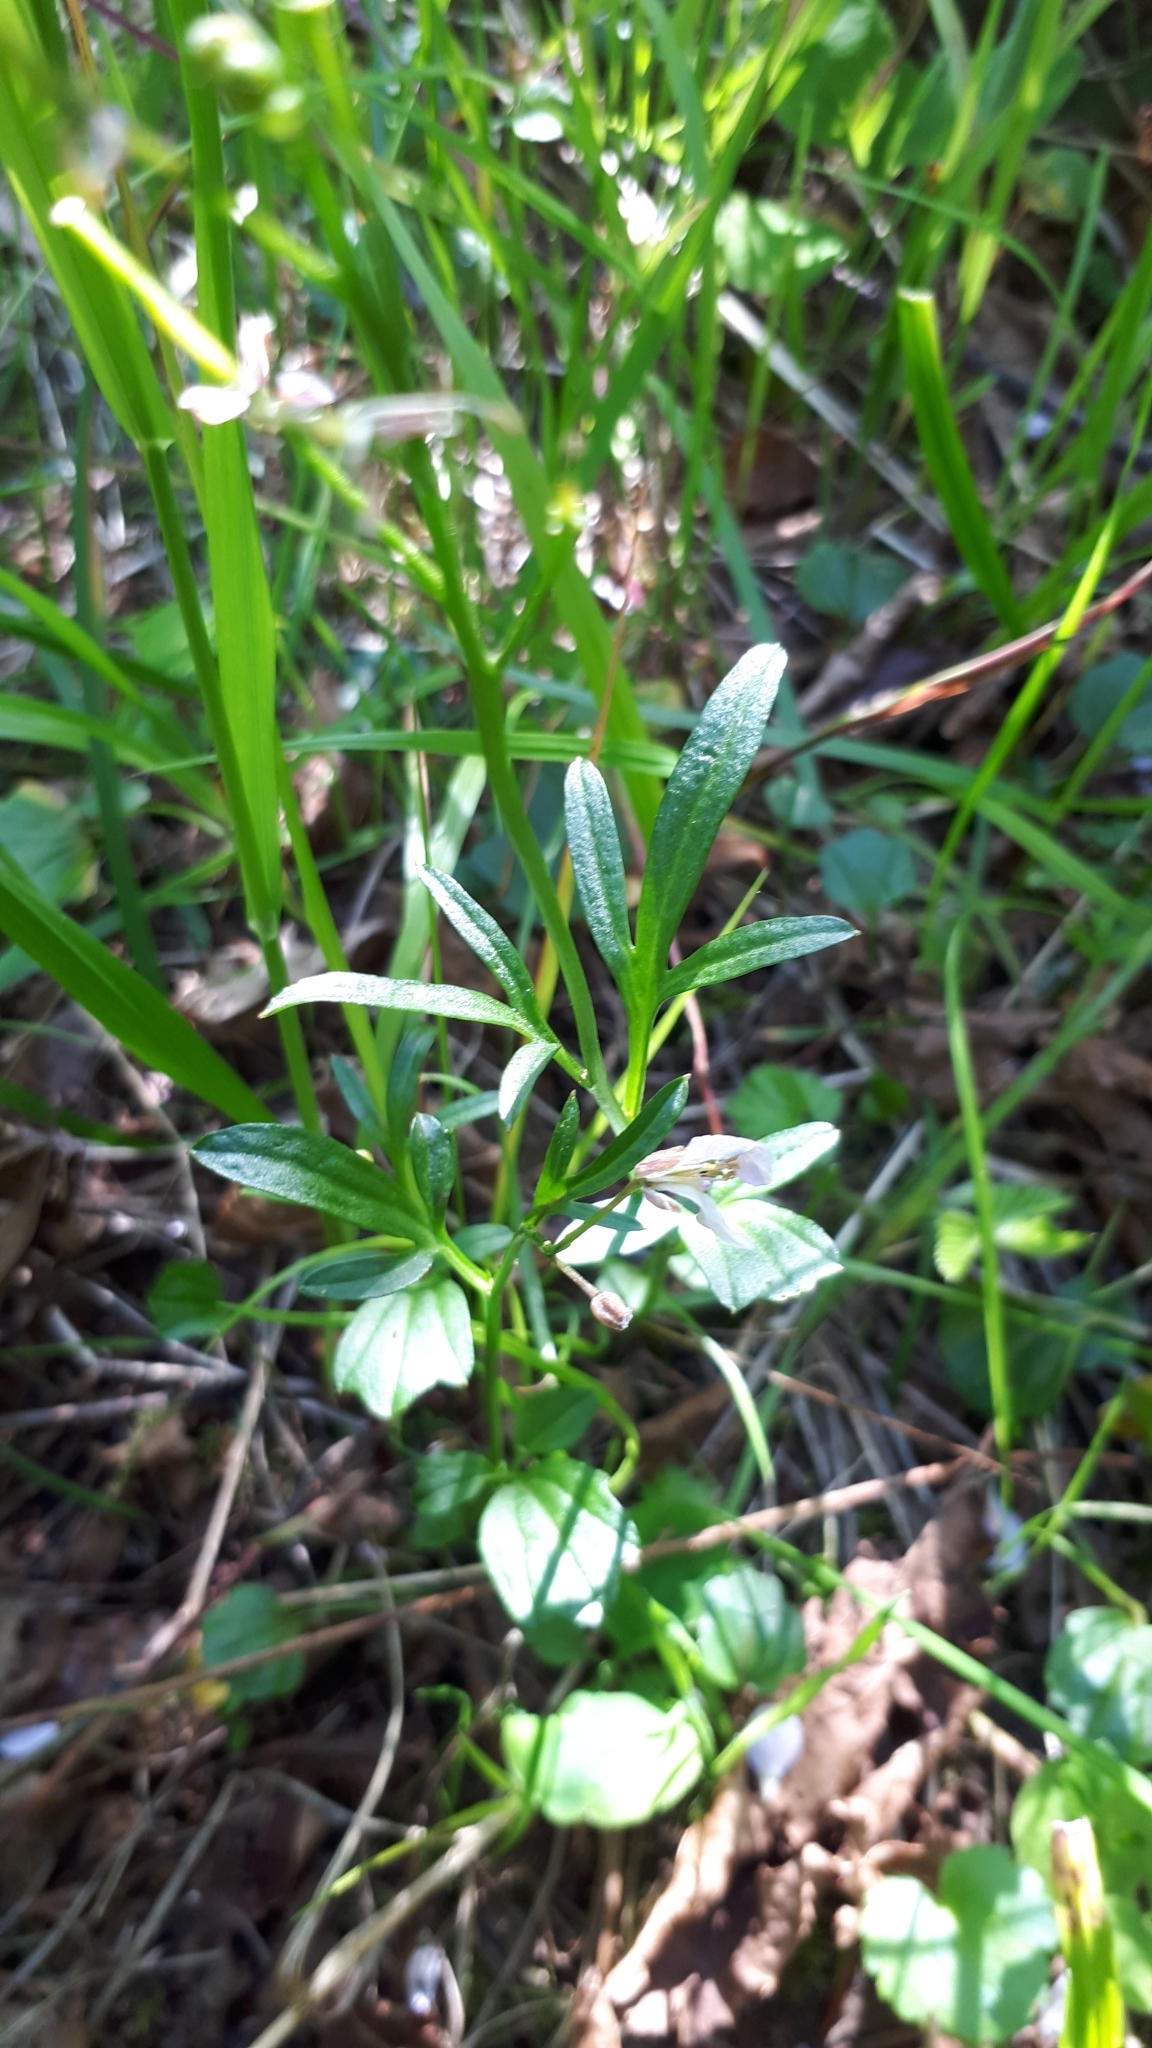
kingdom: Plantae
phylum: Tracheophyta
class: Magnoliopsida
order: Brassicales
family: Brassicaceae
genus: Cardamine
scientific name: Cardamine nuttallii
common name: Nuttall's toothwort
